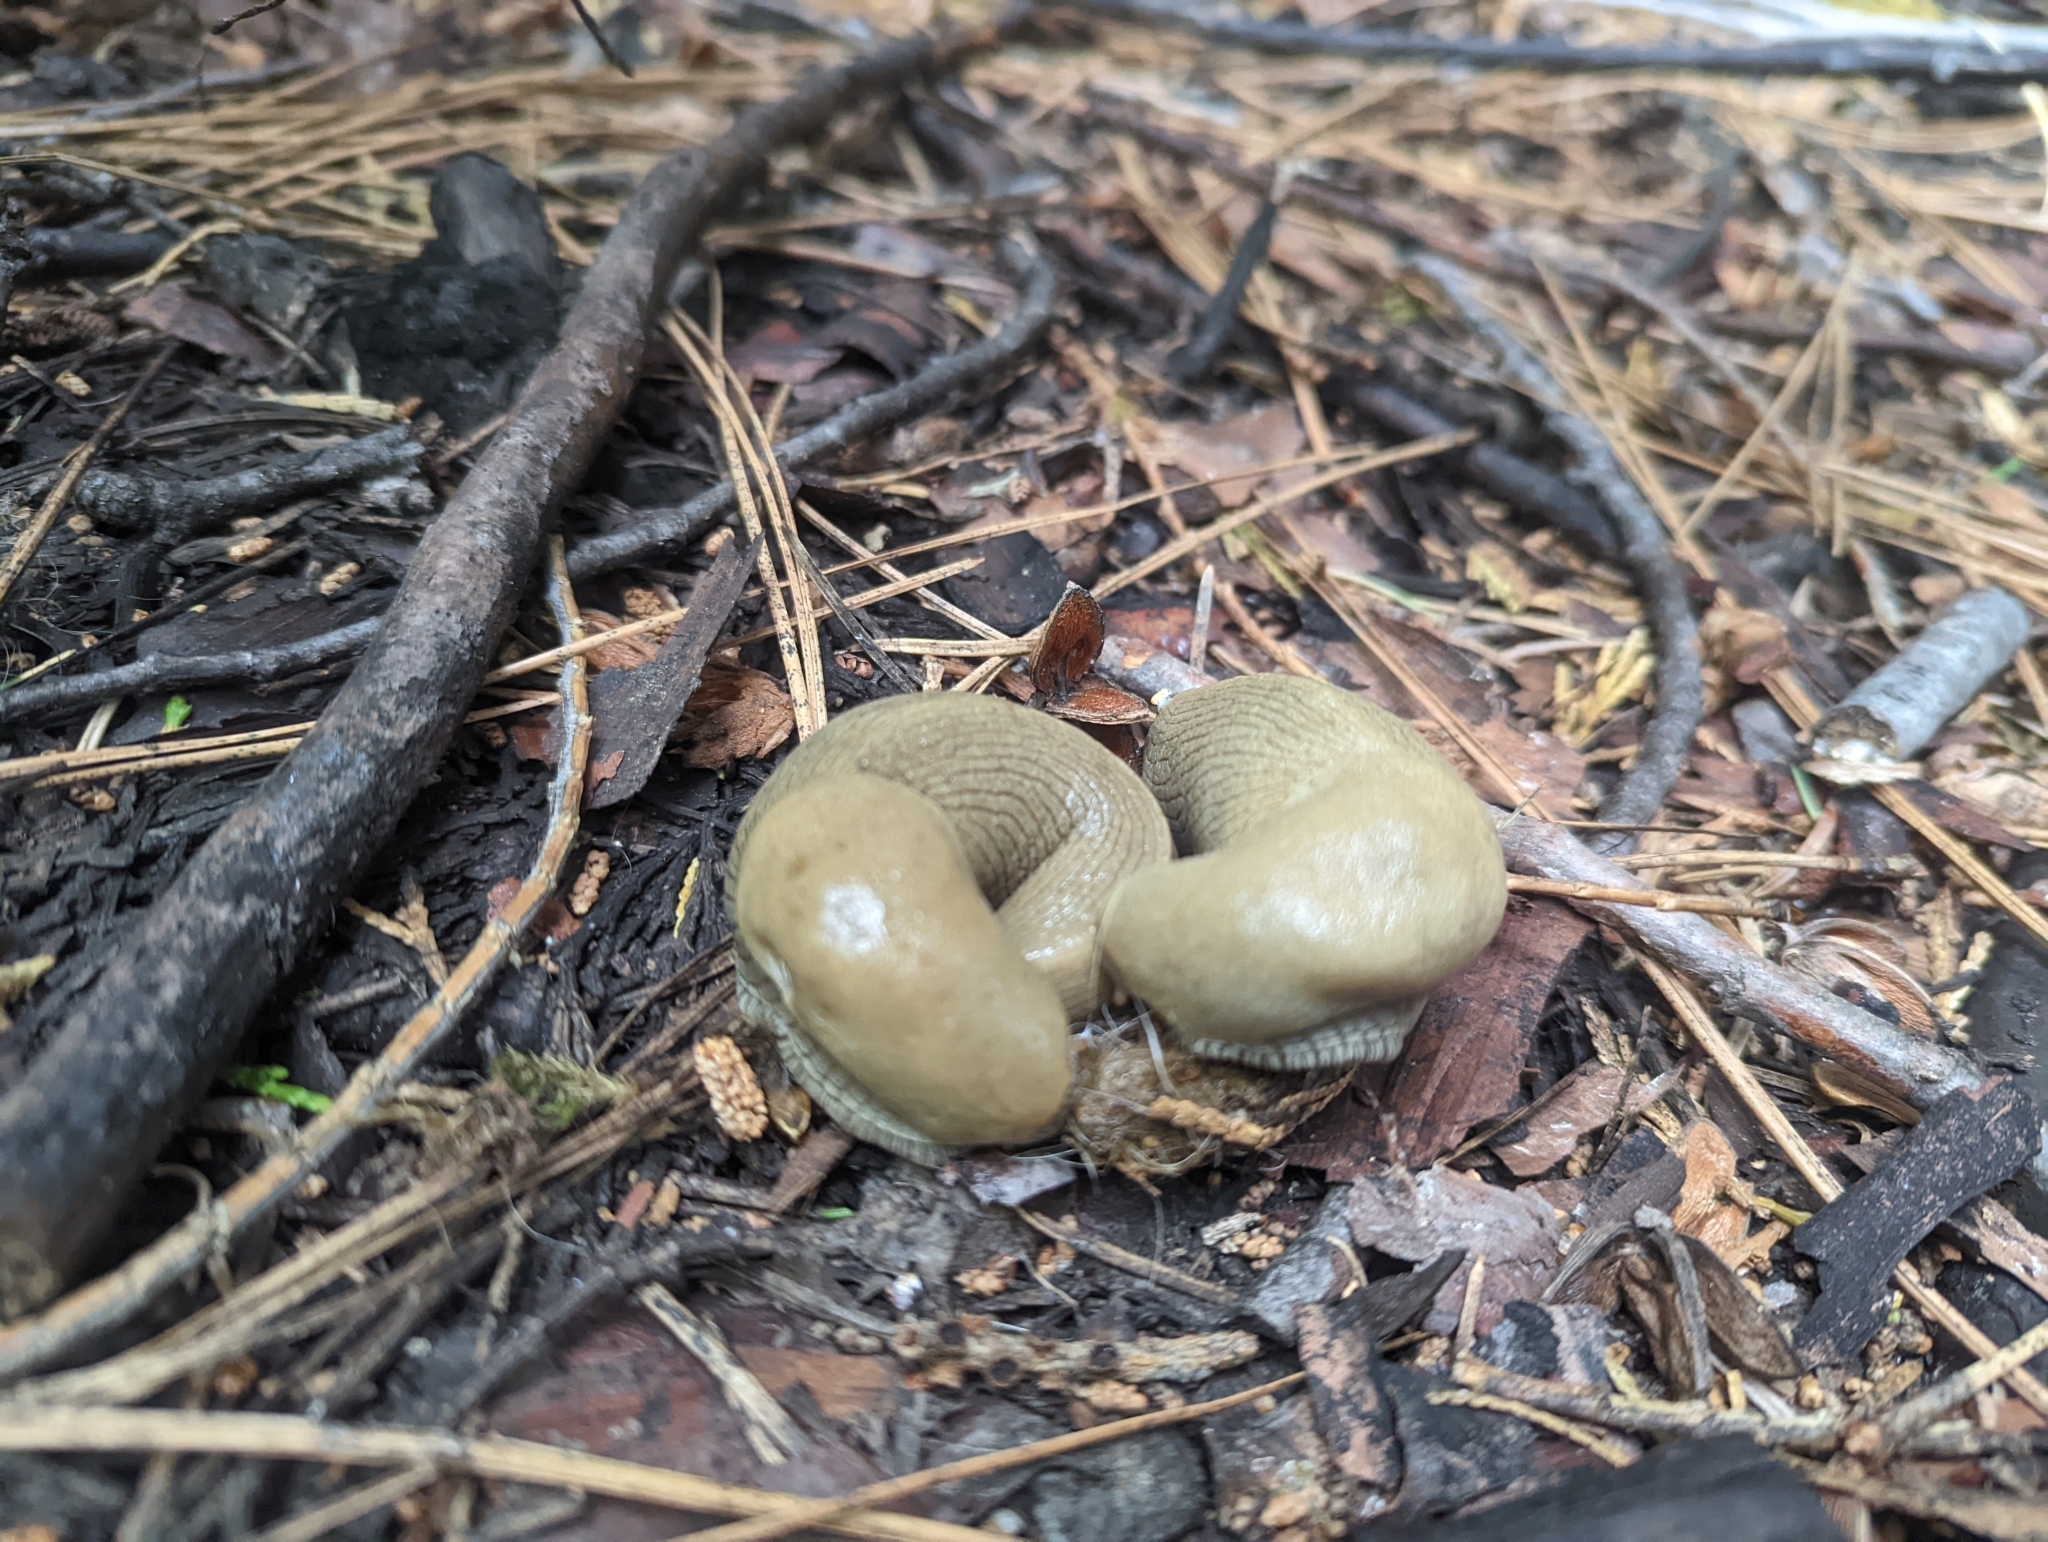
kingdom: Animalia
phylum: Mollusca
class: Gastropoda
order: Stylommatophora
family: Ariolimacidae
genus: Ariolimax
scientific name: Ariolimax buttoni
